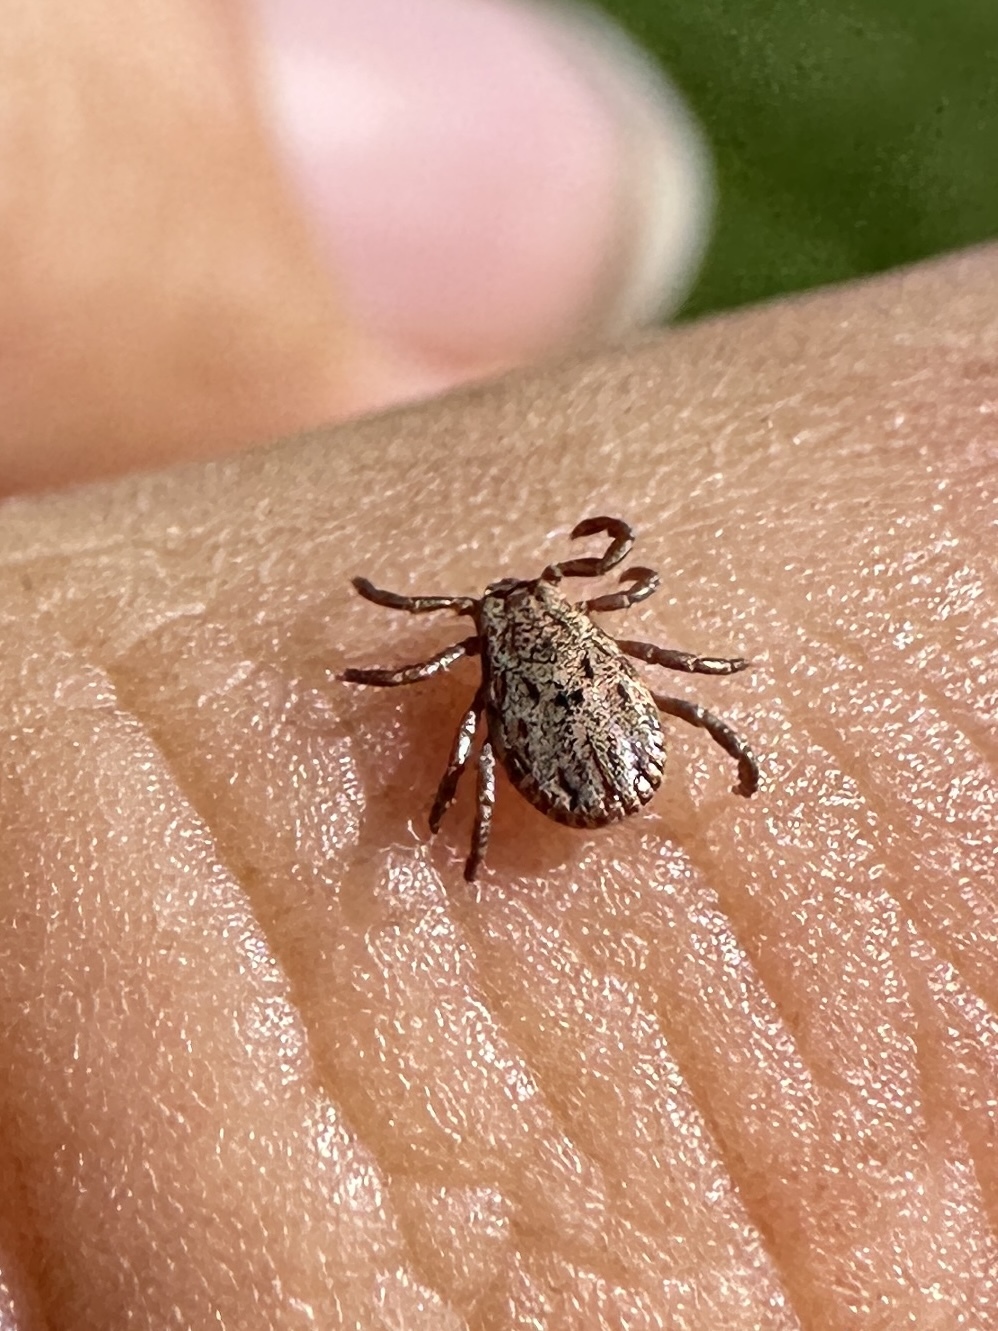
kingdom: Animalia
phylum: Arthropoda
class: Arachnida
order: Ixodida
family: Ixodidae
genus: Dermacentor
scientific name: Dermacentor occidentalis
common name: Net tick
